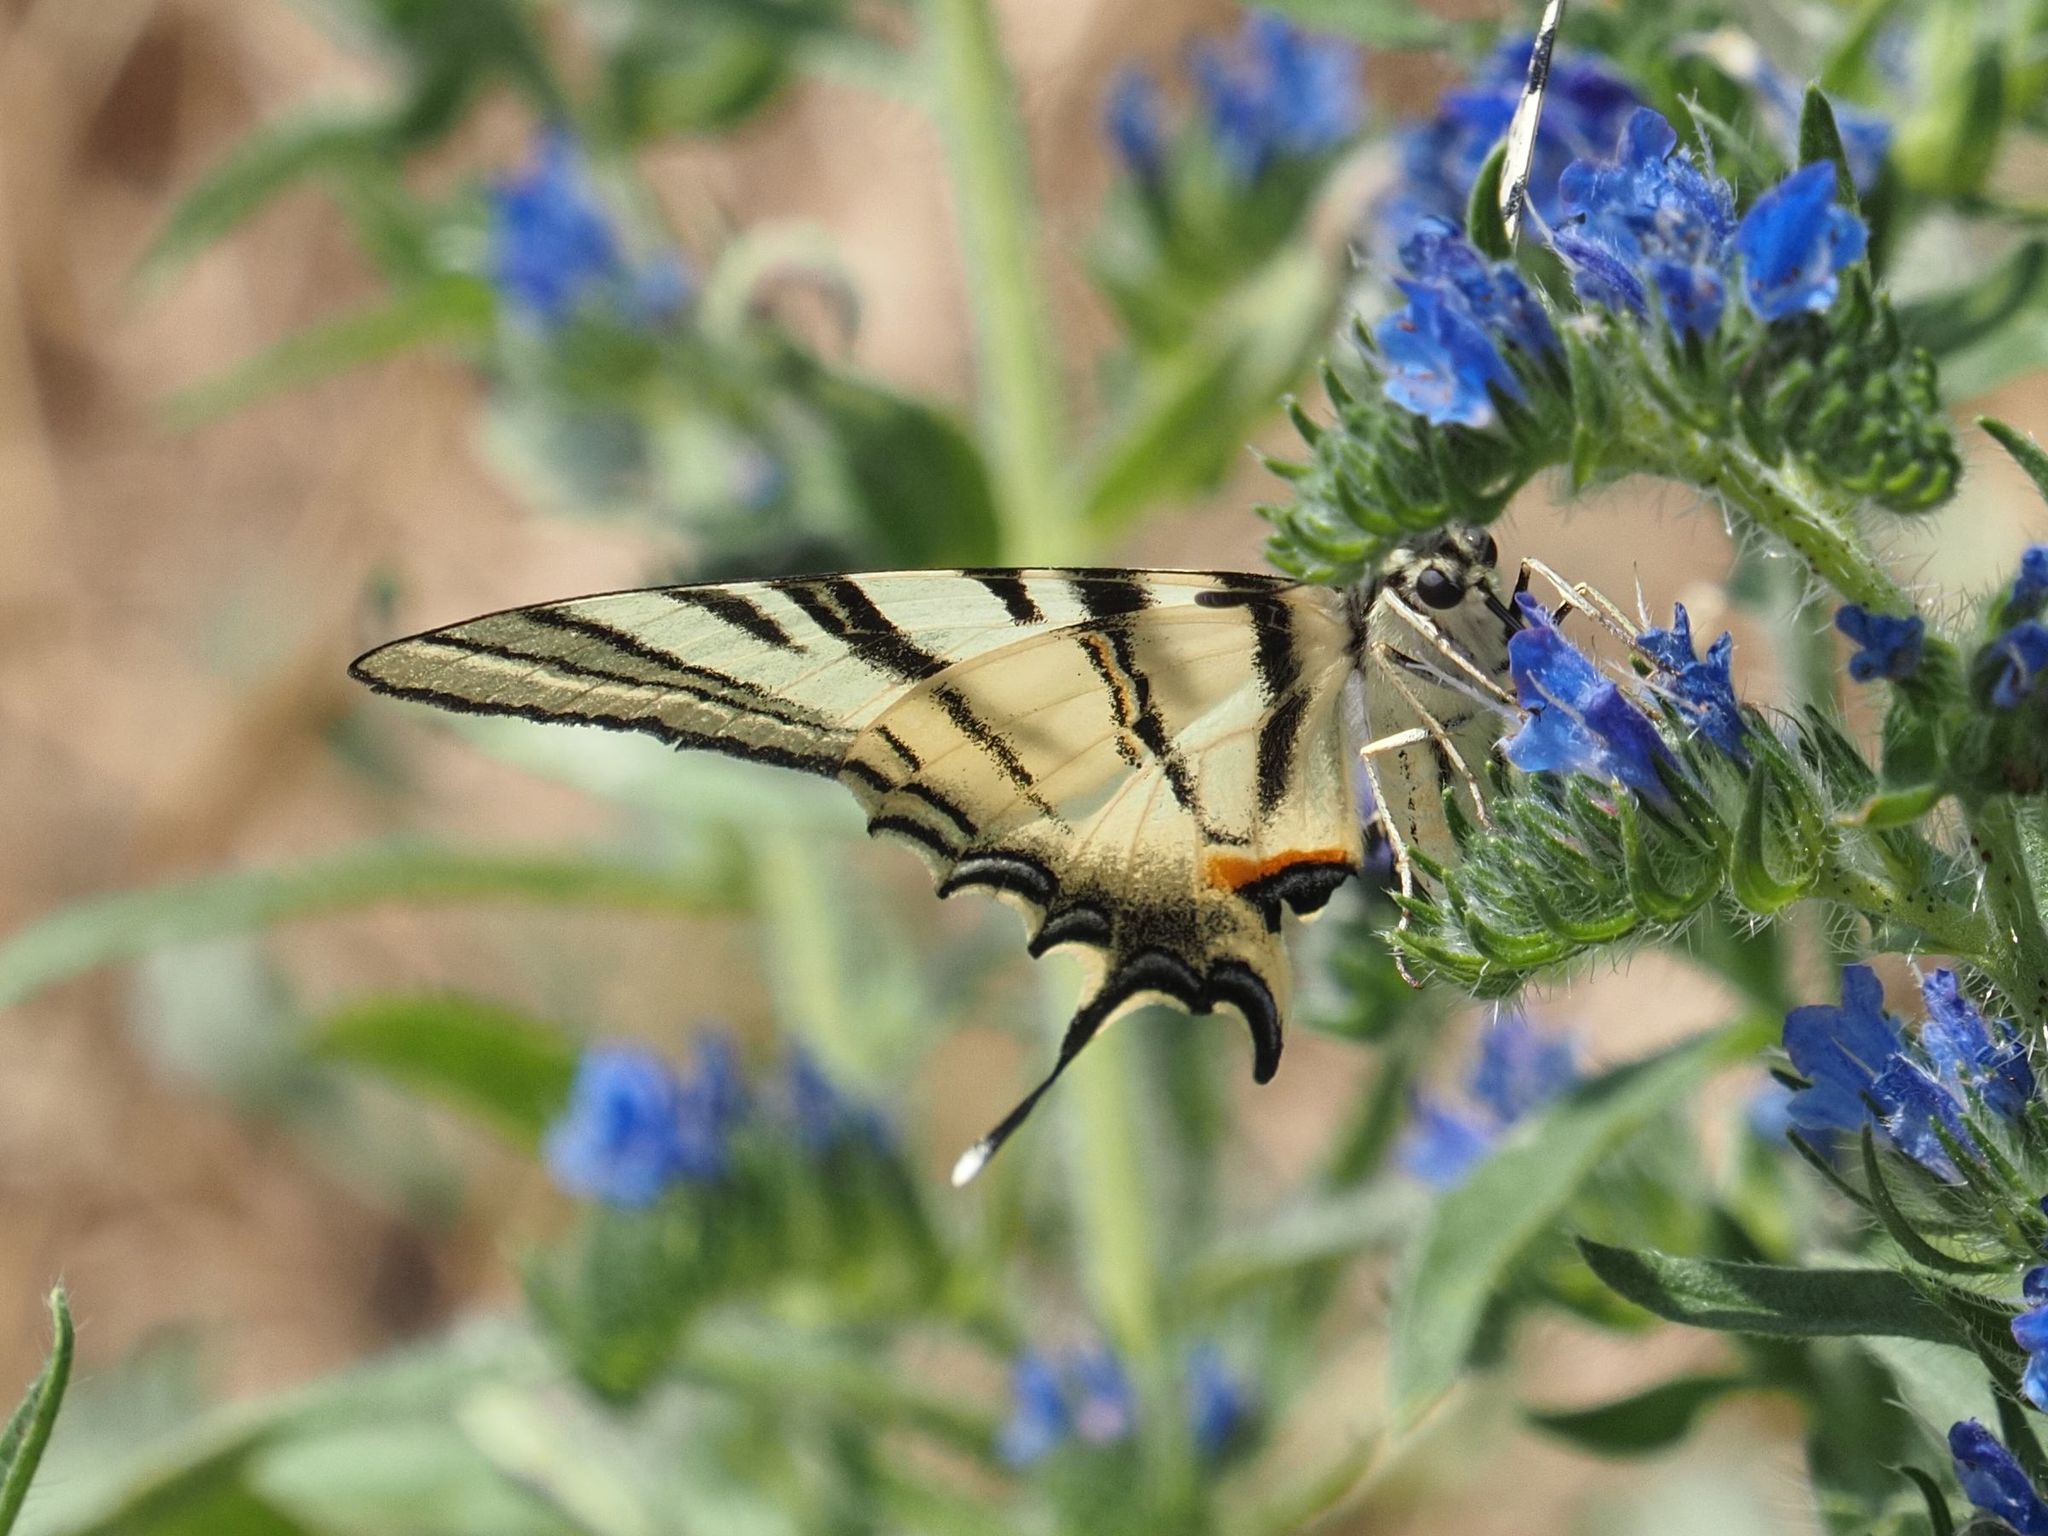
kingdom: Animalia
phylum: Arthropoda
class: Insecta
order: Lepidoptera
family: Papilionidae
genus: Iphiclides
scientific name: Iphiclides podalirius
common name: Scarce swallowtail
